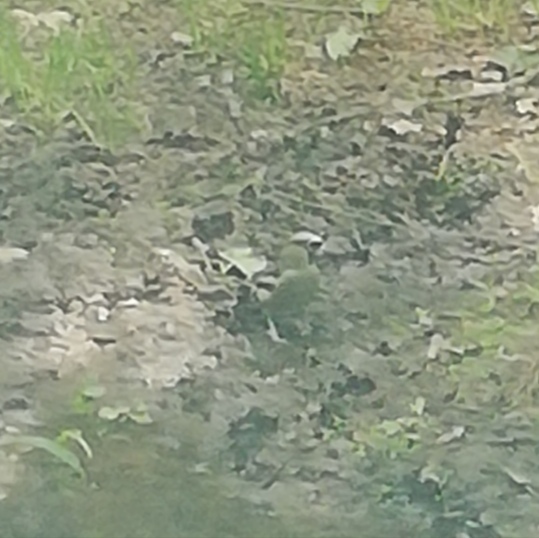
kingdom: Animalia
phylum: Chordata
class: Aves
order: Passeriformes
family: Fringillidae
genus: Coccothraustes
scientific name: Coccothraustes coccothraustes
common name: Hawfinch
